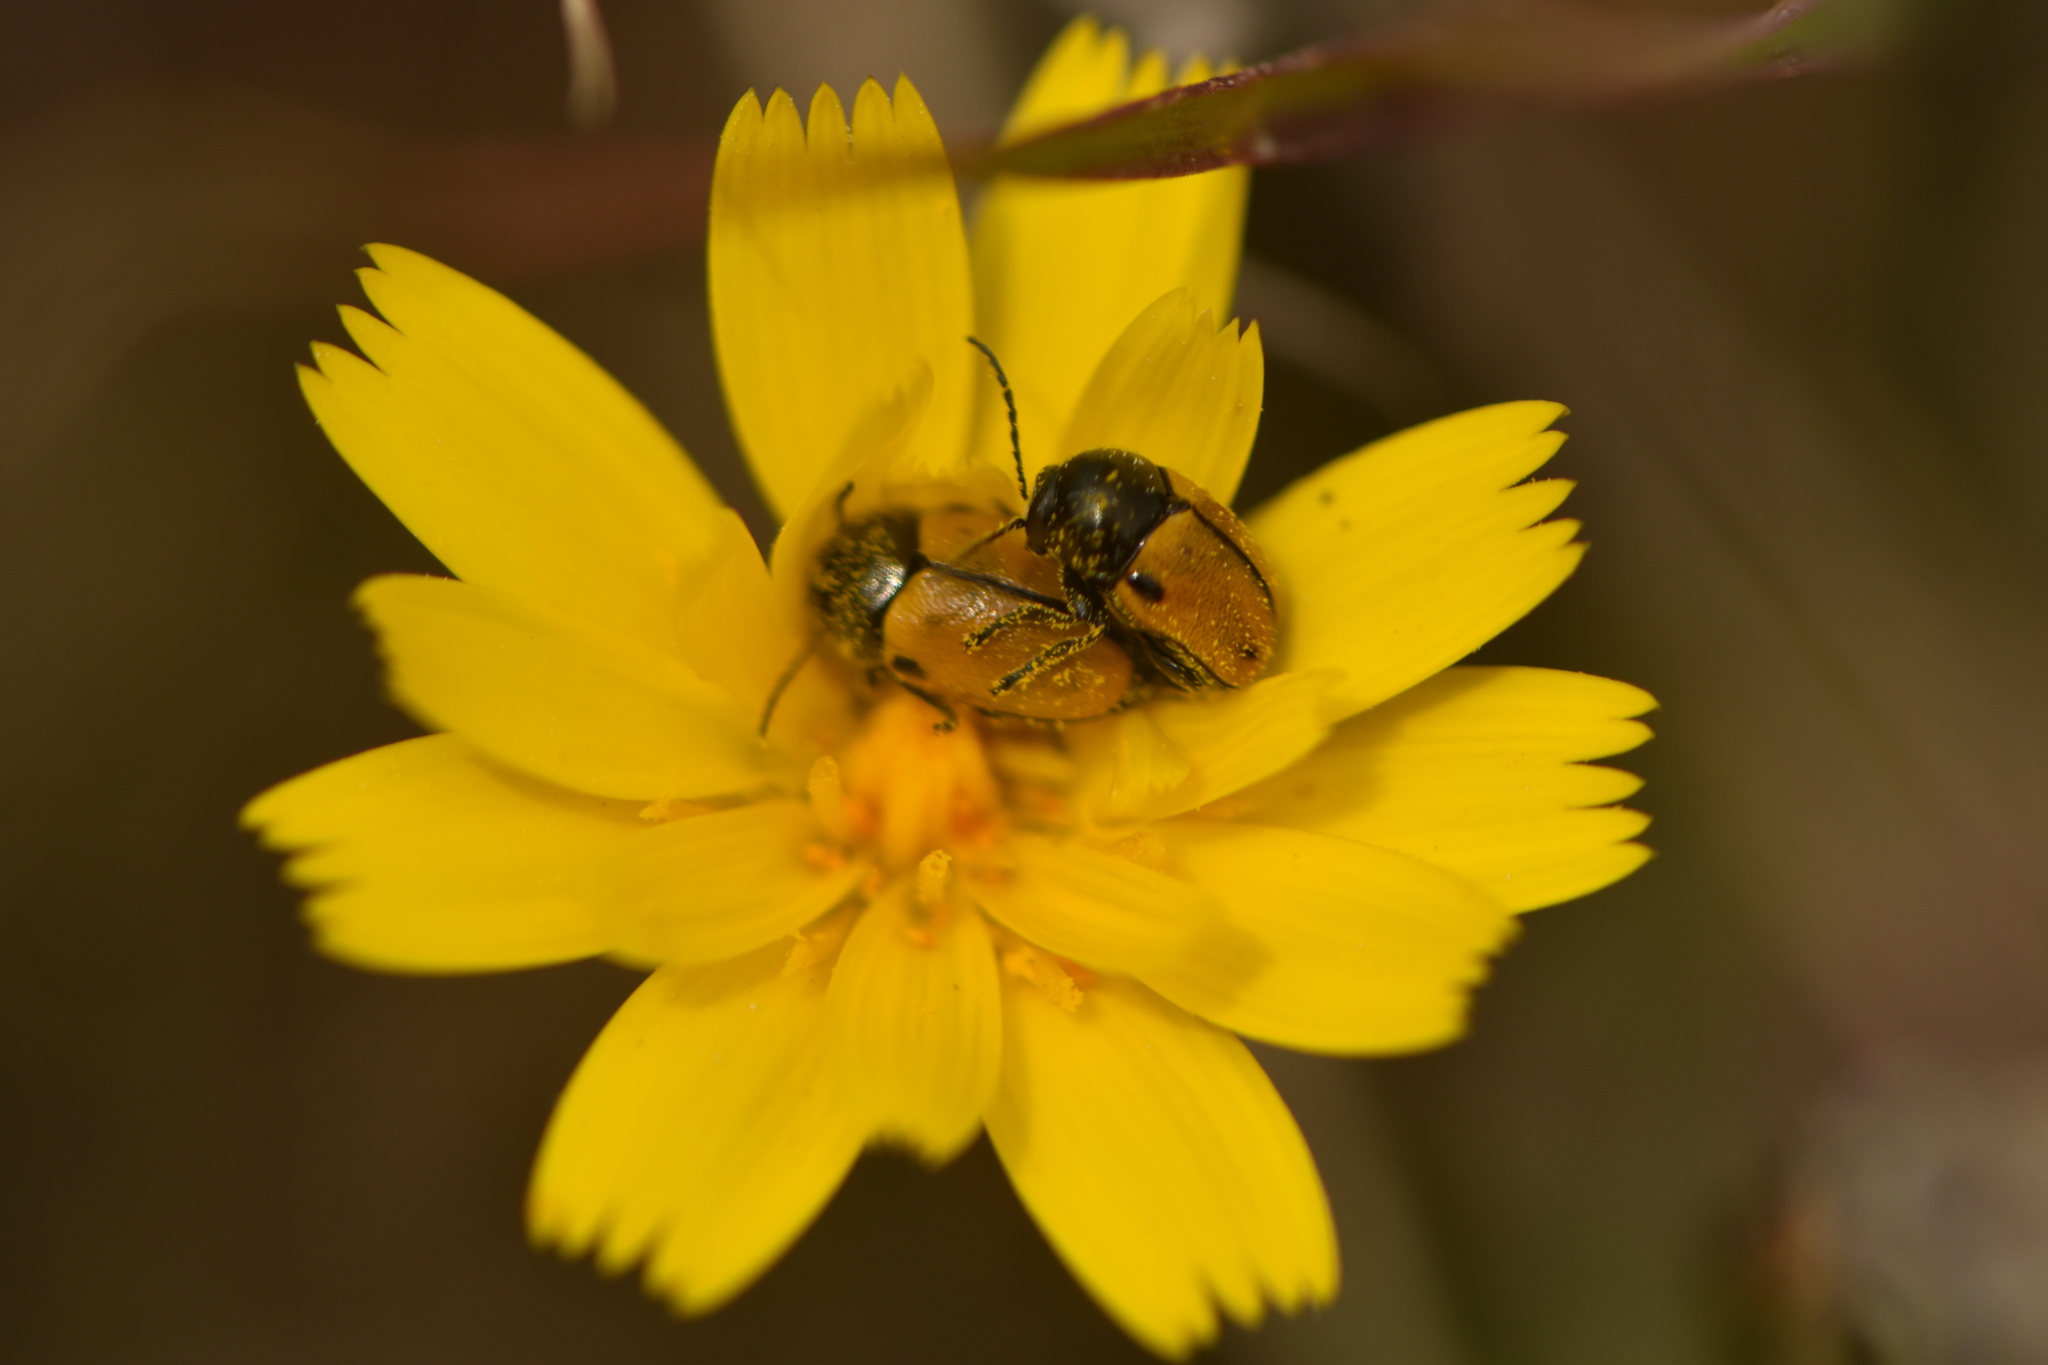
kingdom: Animalia
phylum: Arthropoda
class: Insecta
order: Coleoptera
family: Chrysomelidae
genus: Cryptocephalus
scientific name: Cryptocephalus rugicollis
